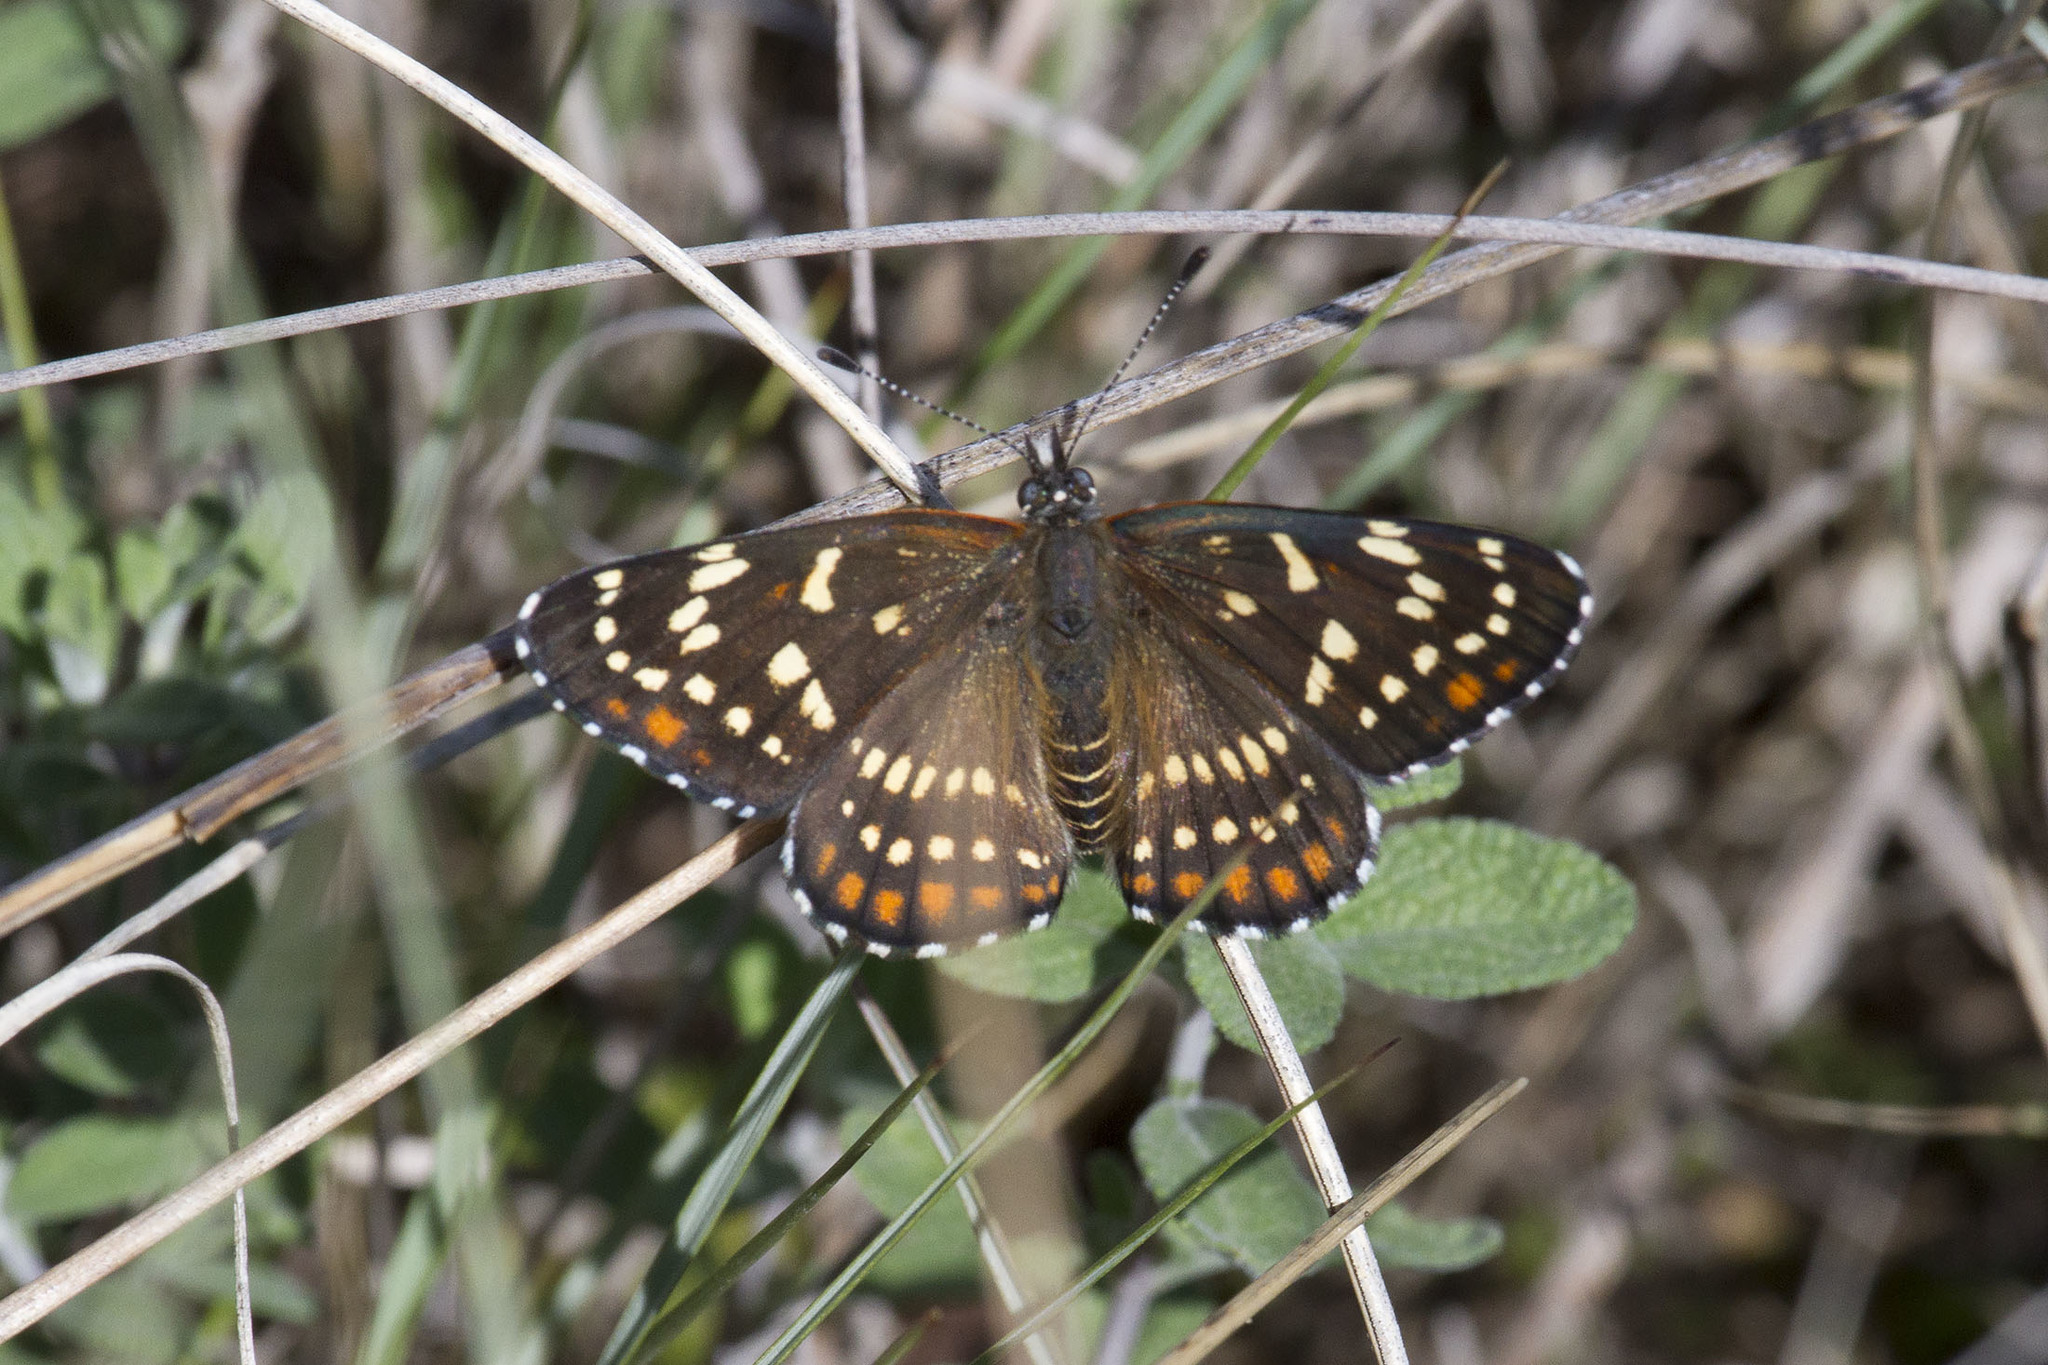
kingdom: Animalia
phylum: Arthropoda
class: Insecta
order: Lepidoptera
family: Nymphalidae
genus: Thessalia
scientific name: Thessalia leanira
